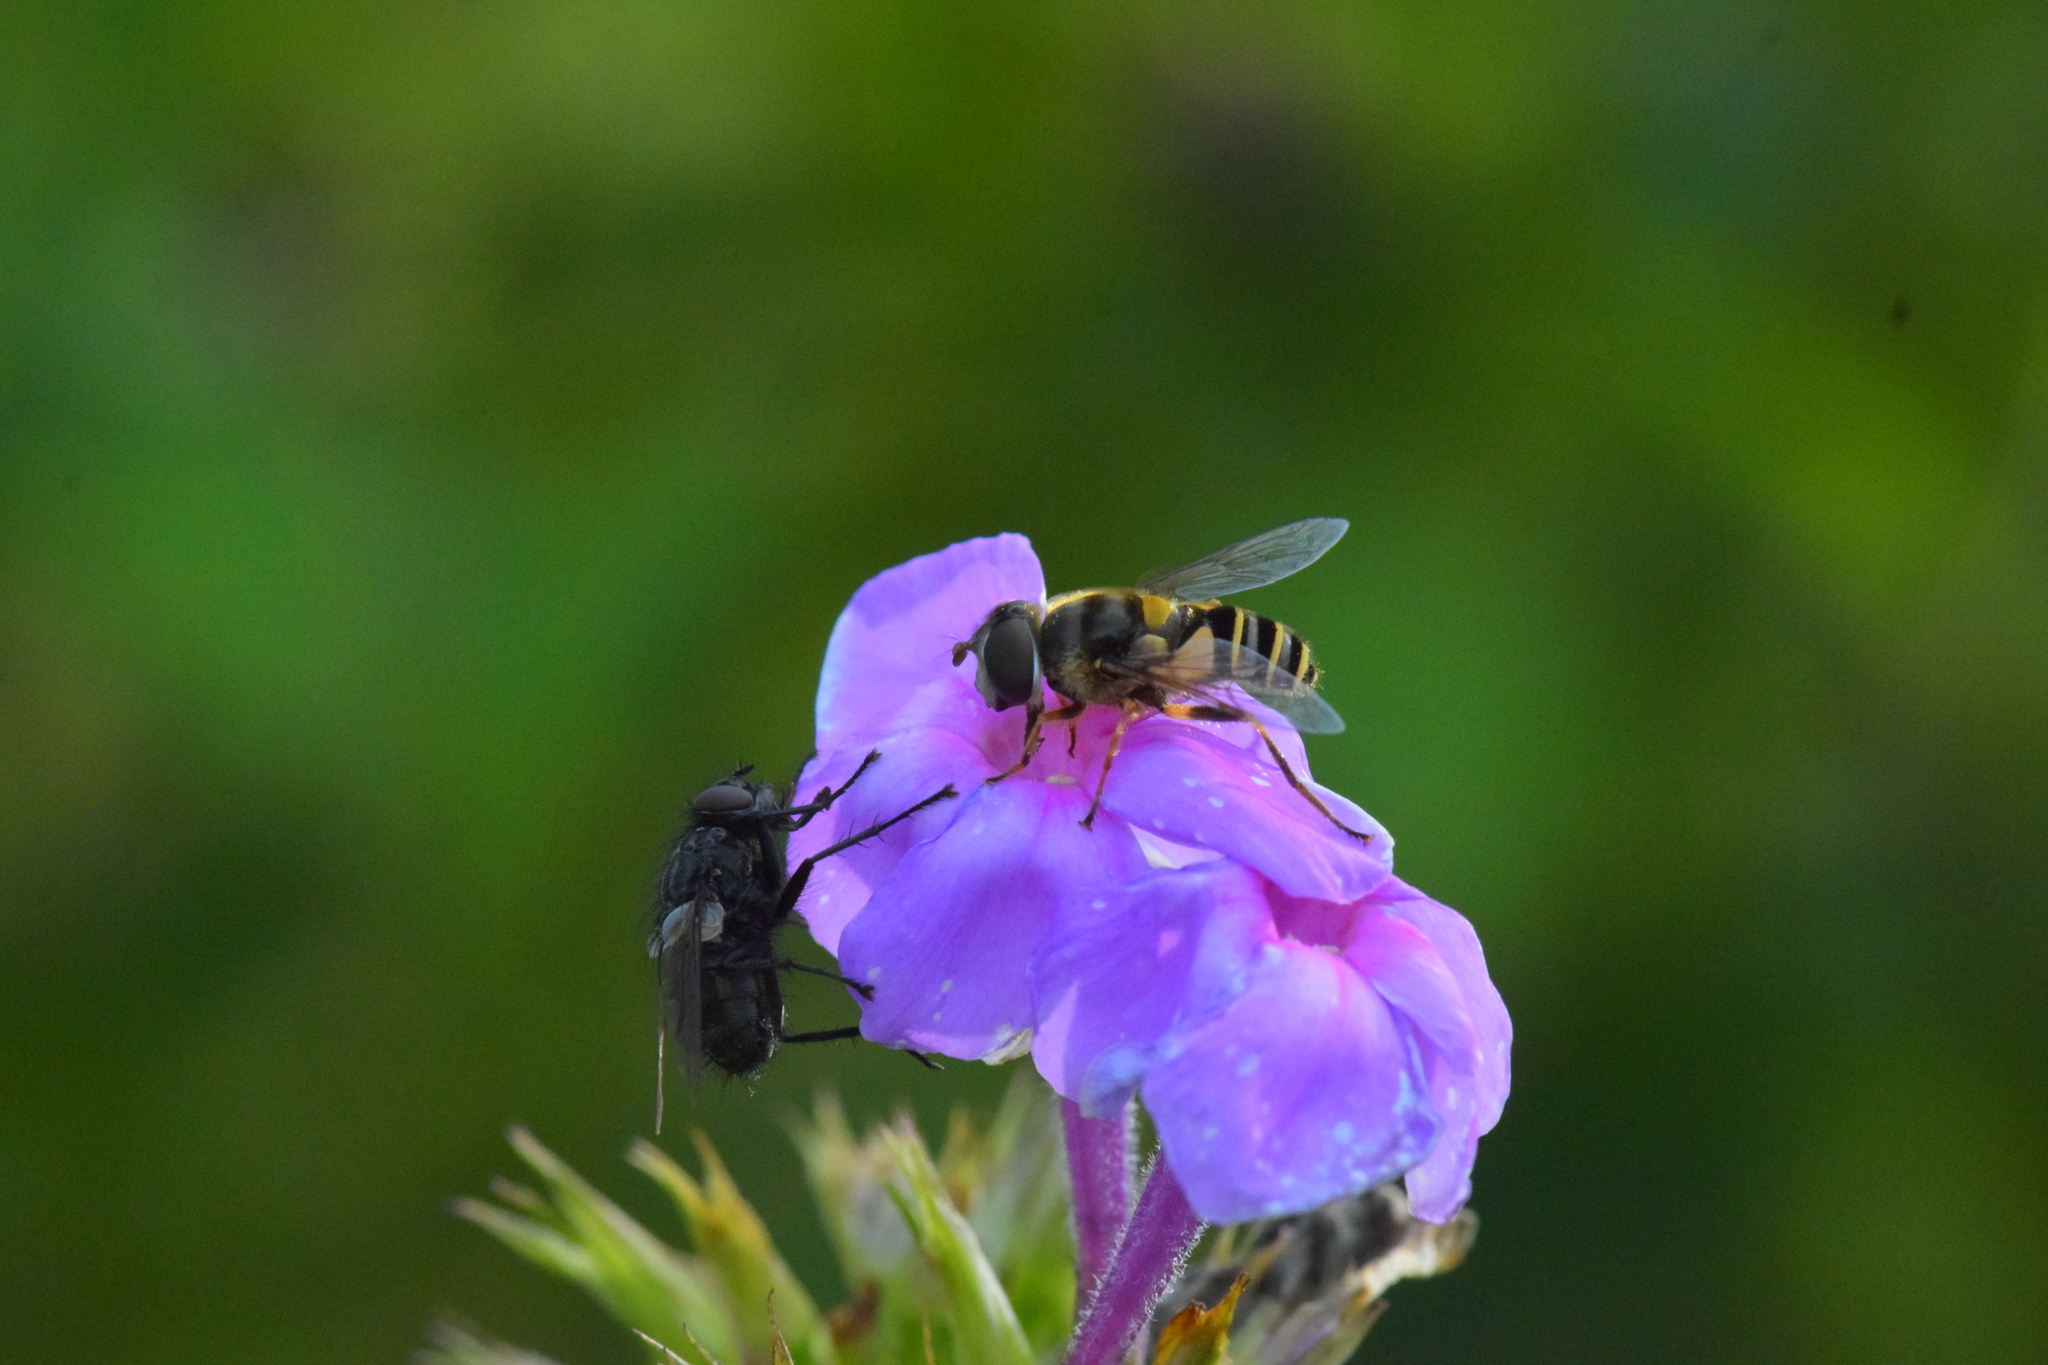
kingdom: Animalia
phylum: Arthropoda
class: Insecta
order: Diptera
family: Syrphidae
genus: Eristalis
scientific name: Eristalis transversa
